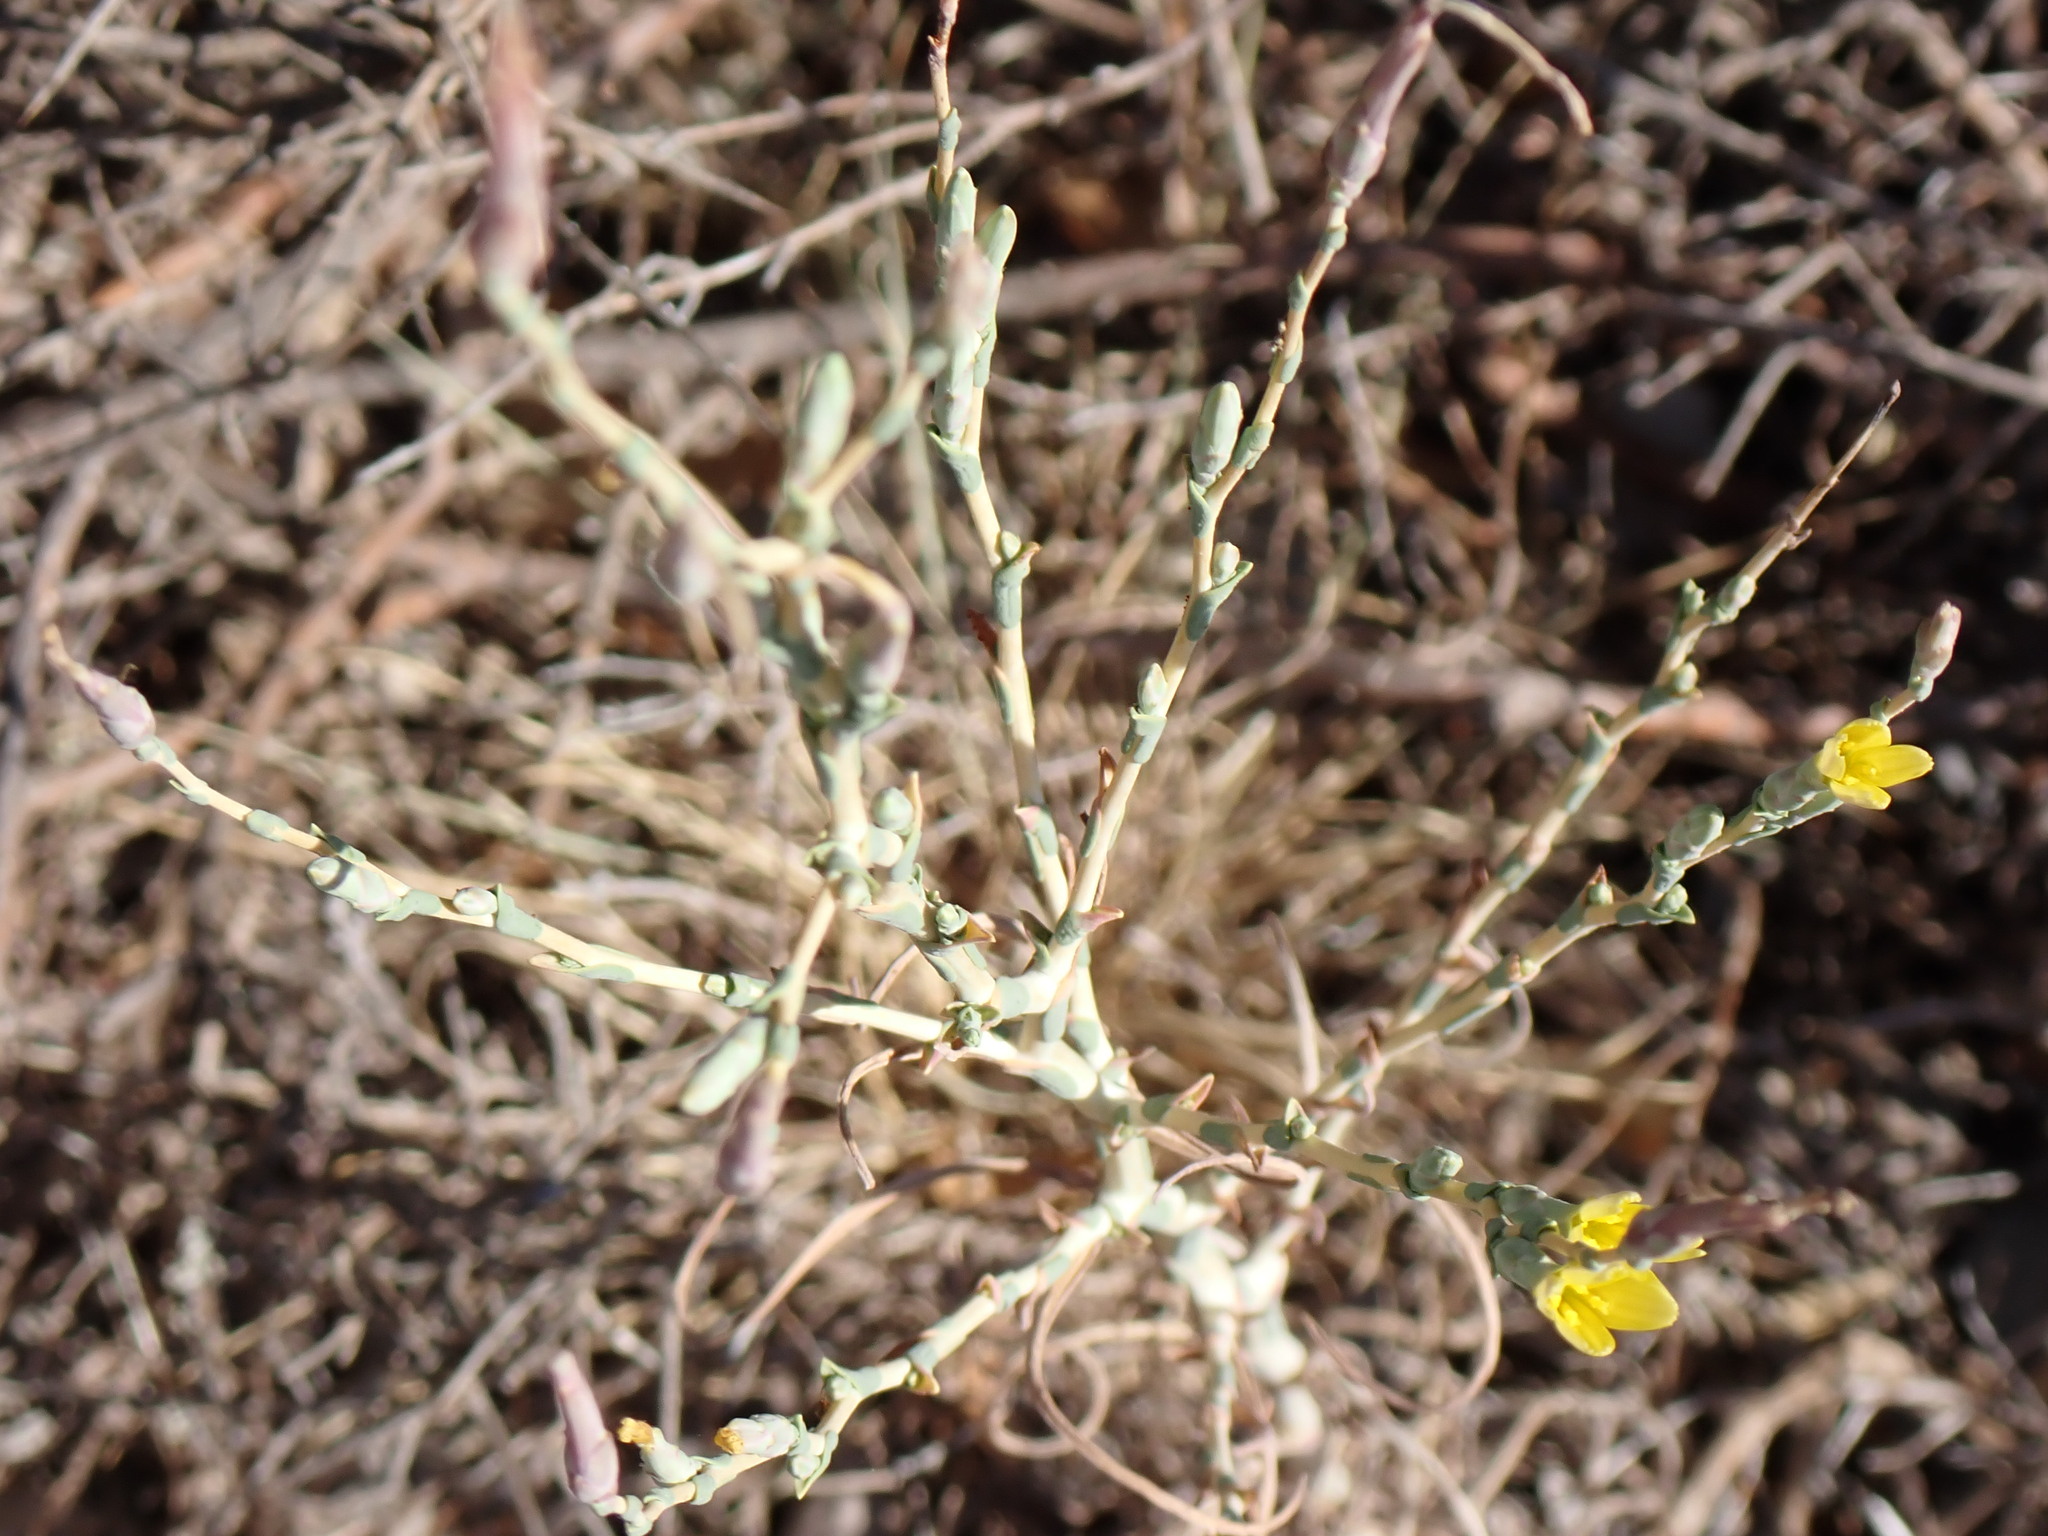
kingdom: Plantae
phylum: Tracheophyta
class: Magnoliopsida
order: Asterales
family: Asteraceae
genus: Lactuca
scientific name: Lactuca viminea
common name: Pliant lettuce
